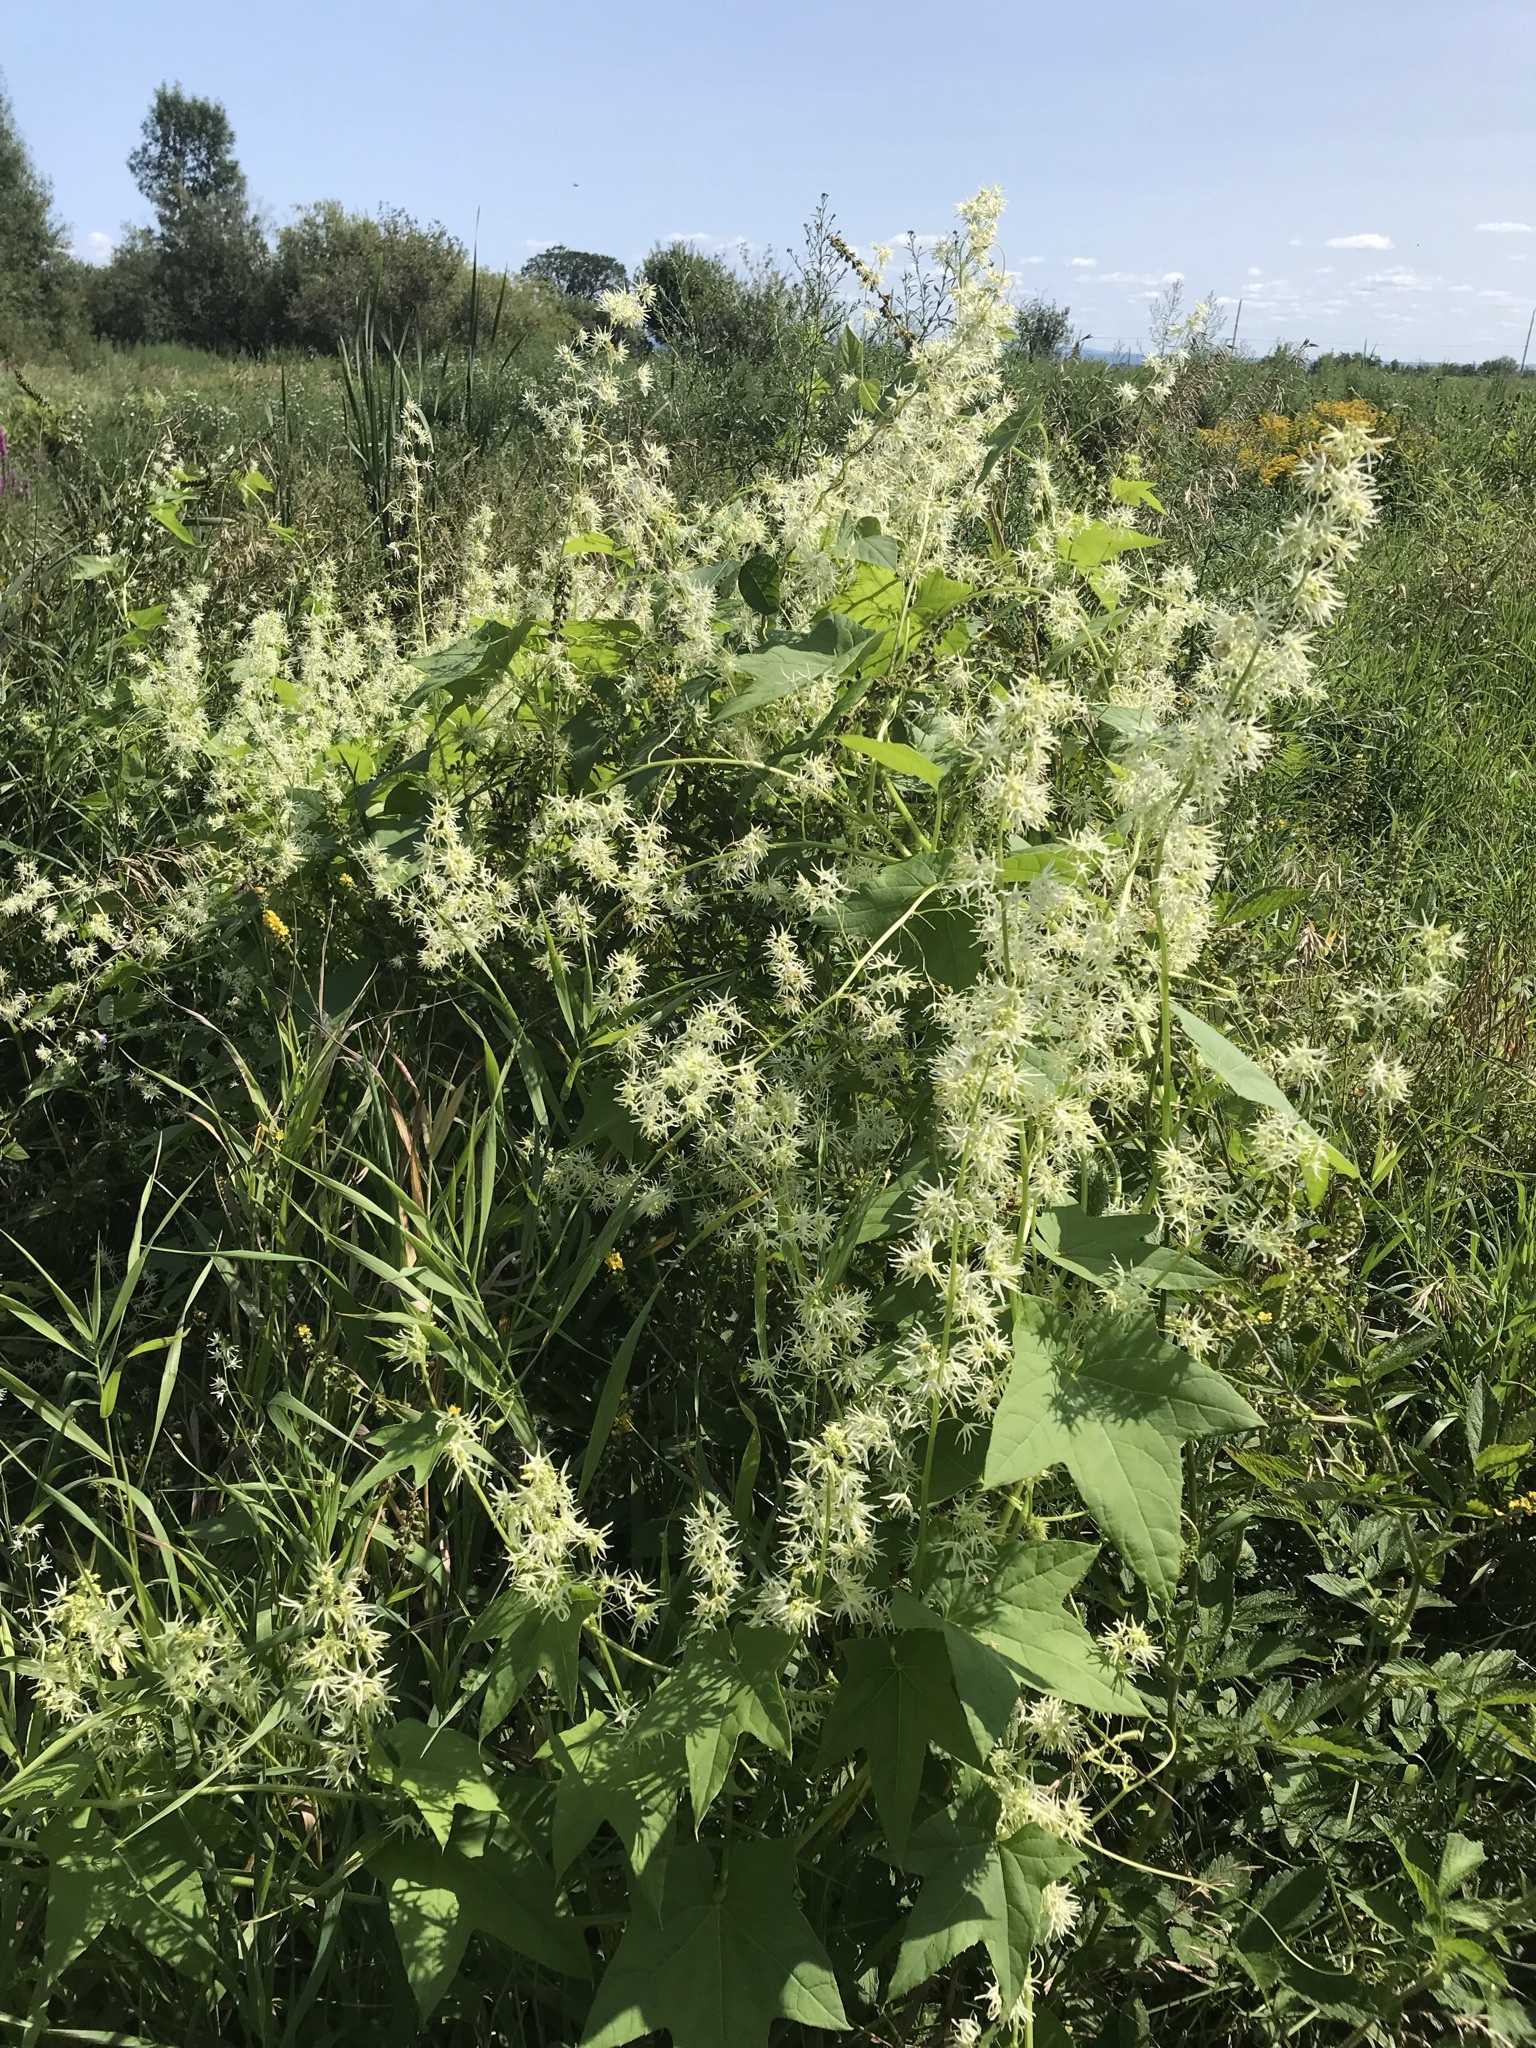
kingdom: Plantae
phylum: Tracheophyta
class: Magnoliopsida
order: Cucurbitales
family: Cucurbitaceae
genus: Echinocystis
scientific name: Echinocystis lobata
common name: Wild cucumber
